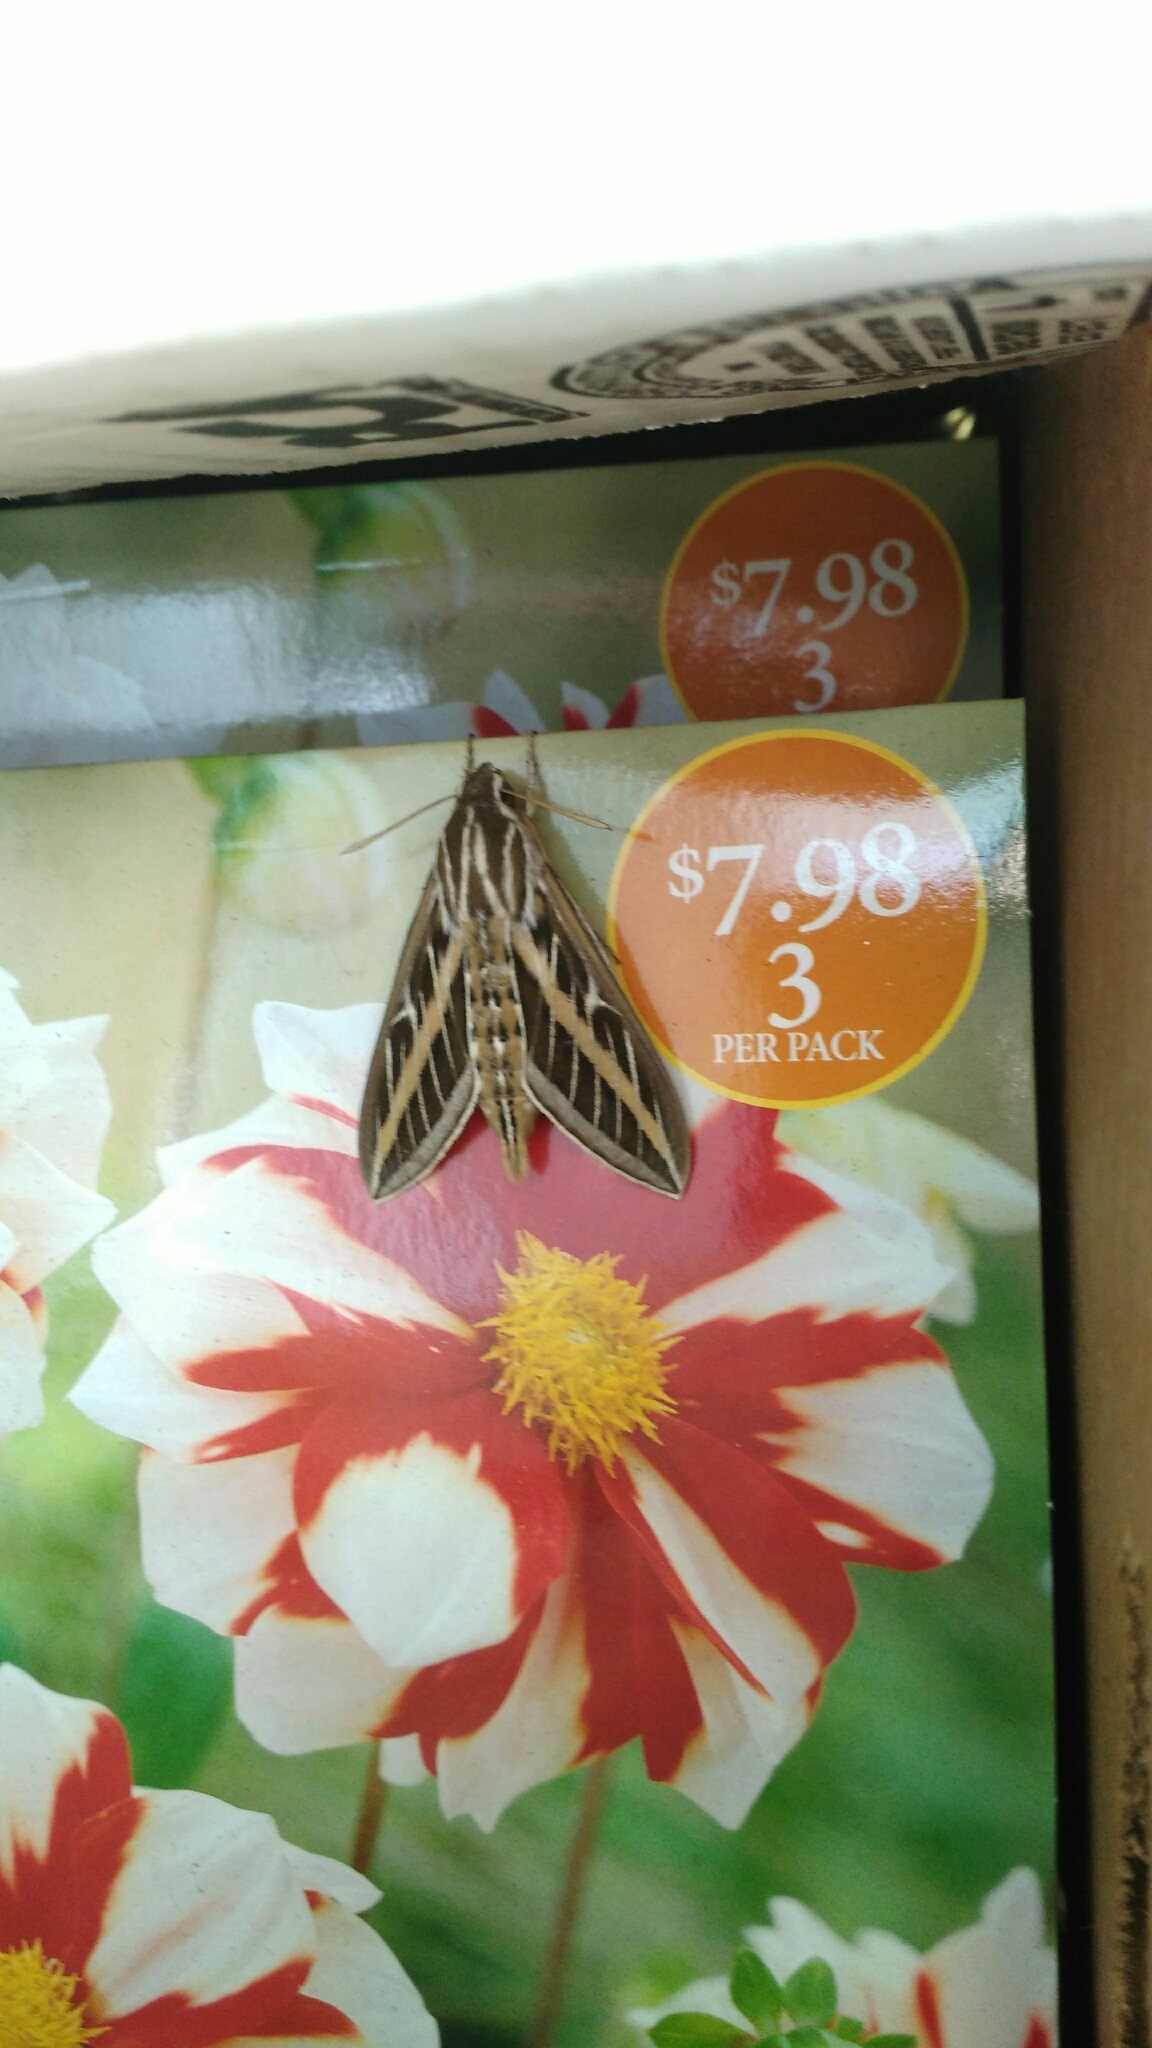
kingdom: Animalia
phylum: Arthropoda
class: Insecta
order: Lepidoptera
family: Sphingidae
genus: Hyles
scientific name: Hyles lineata
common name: White-lined sphinx
